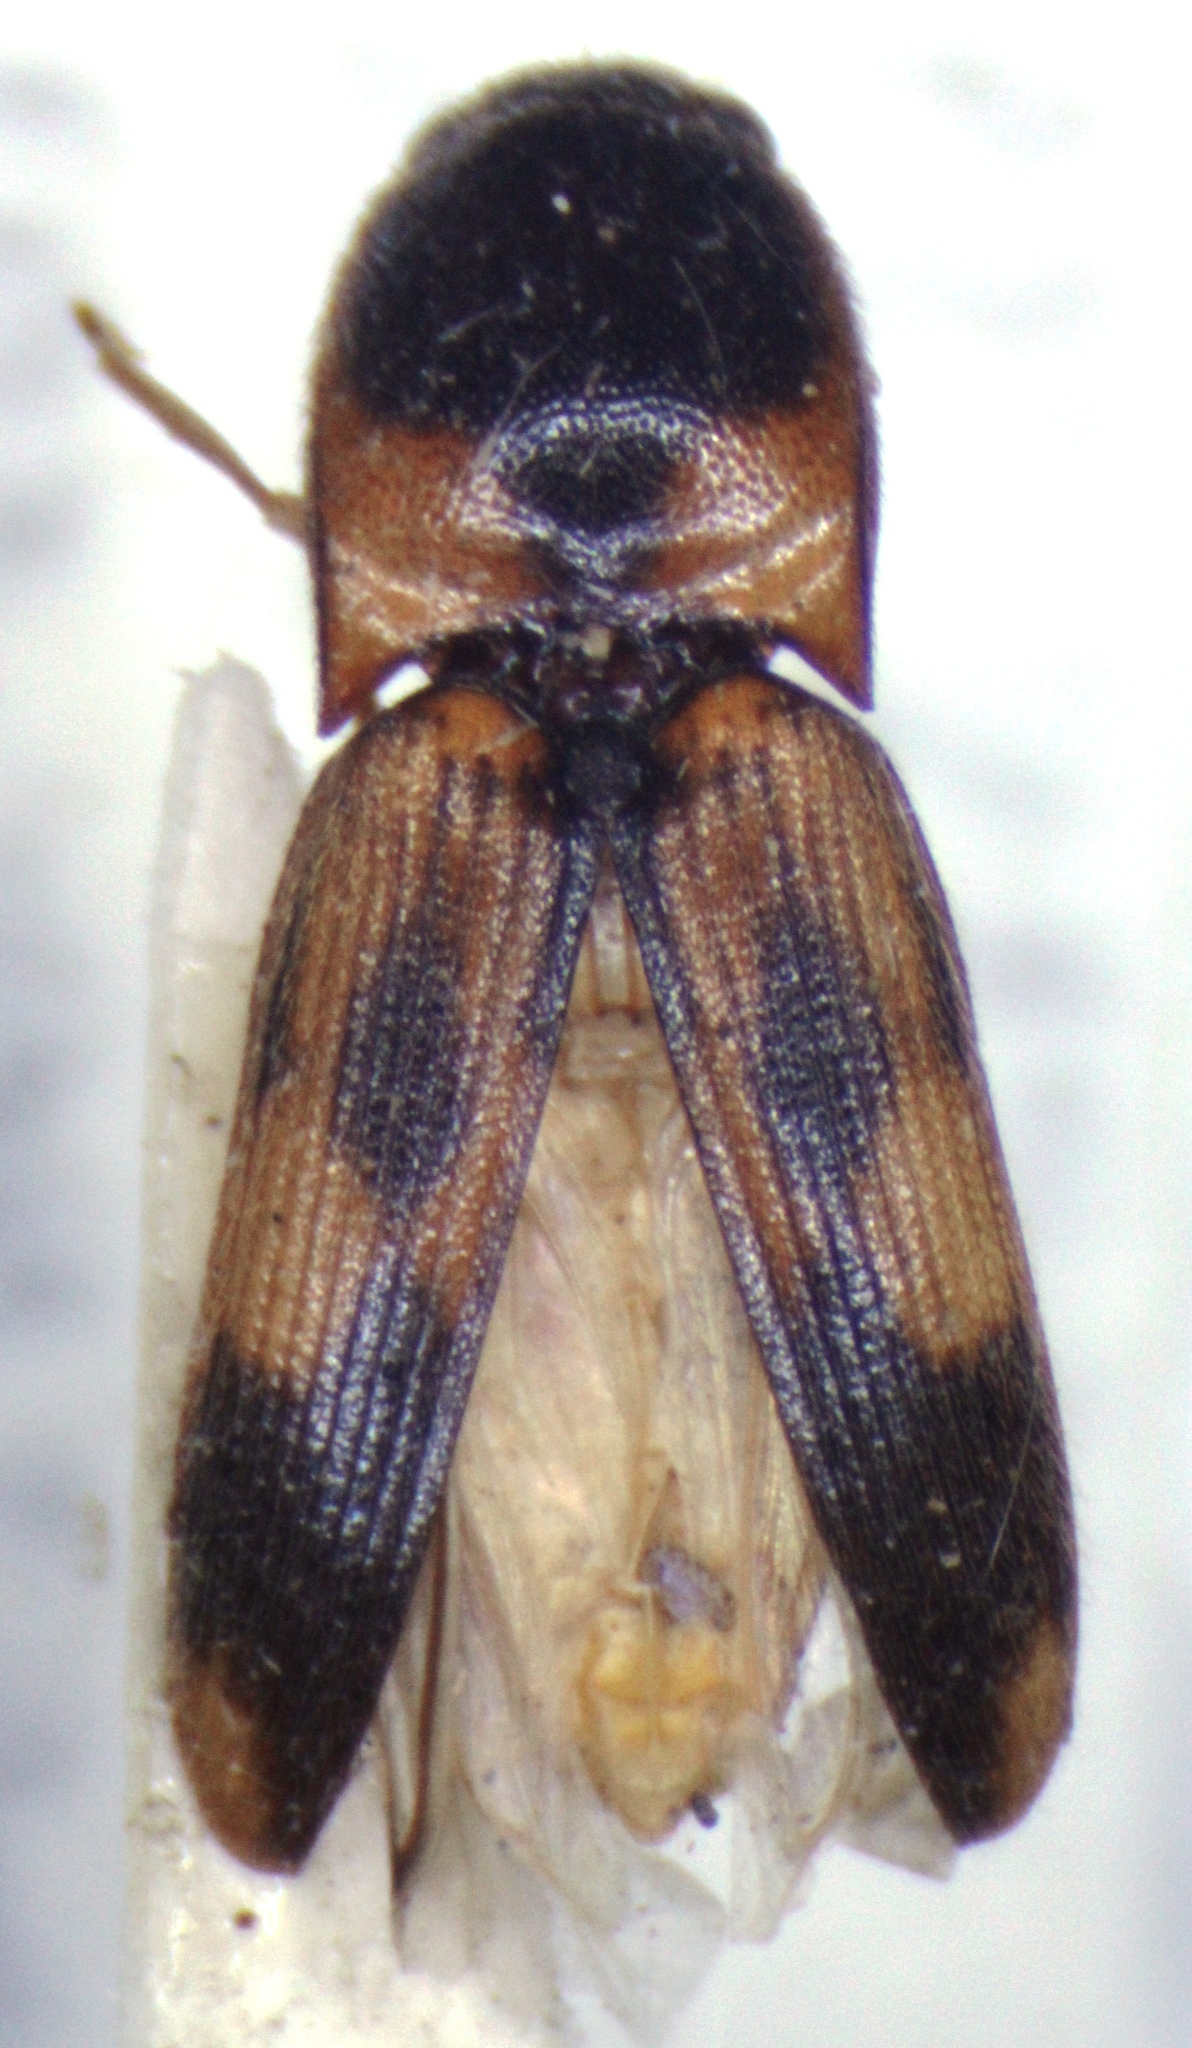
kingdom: Animalia
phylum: Arthropoda
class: Insecta
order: Coleoptera
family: Elateridae
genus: Monocrepidius
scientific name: Monocrepidius vartiani
